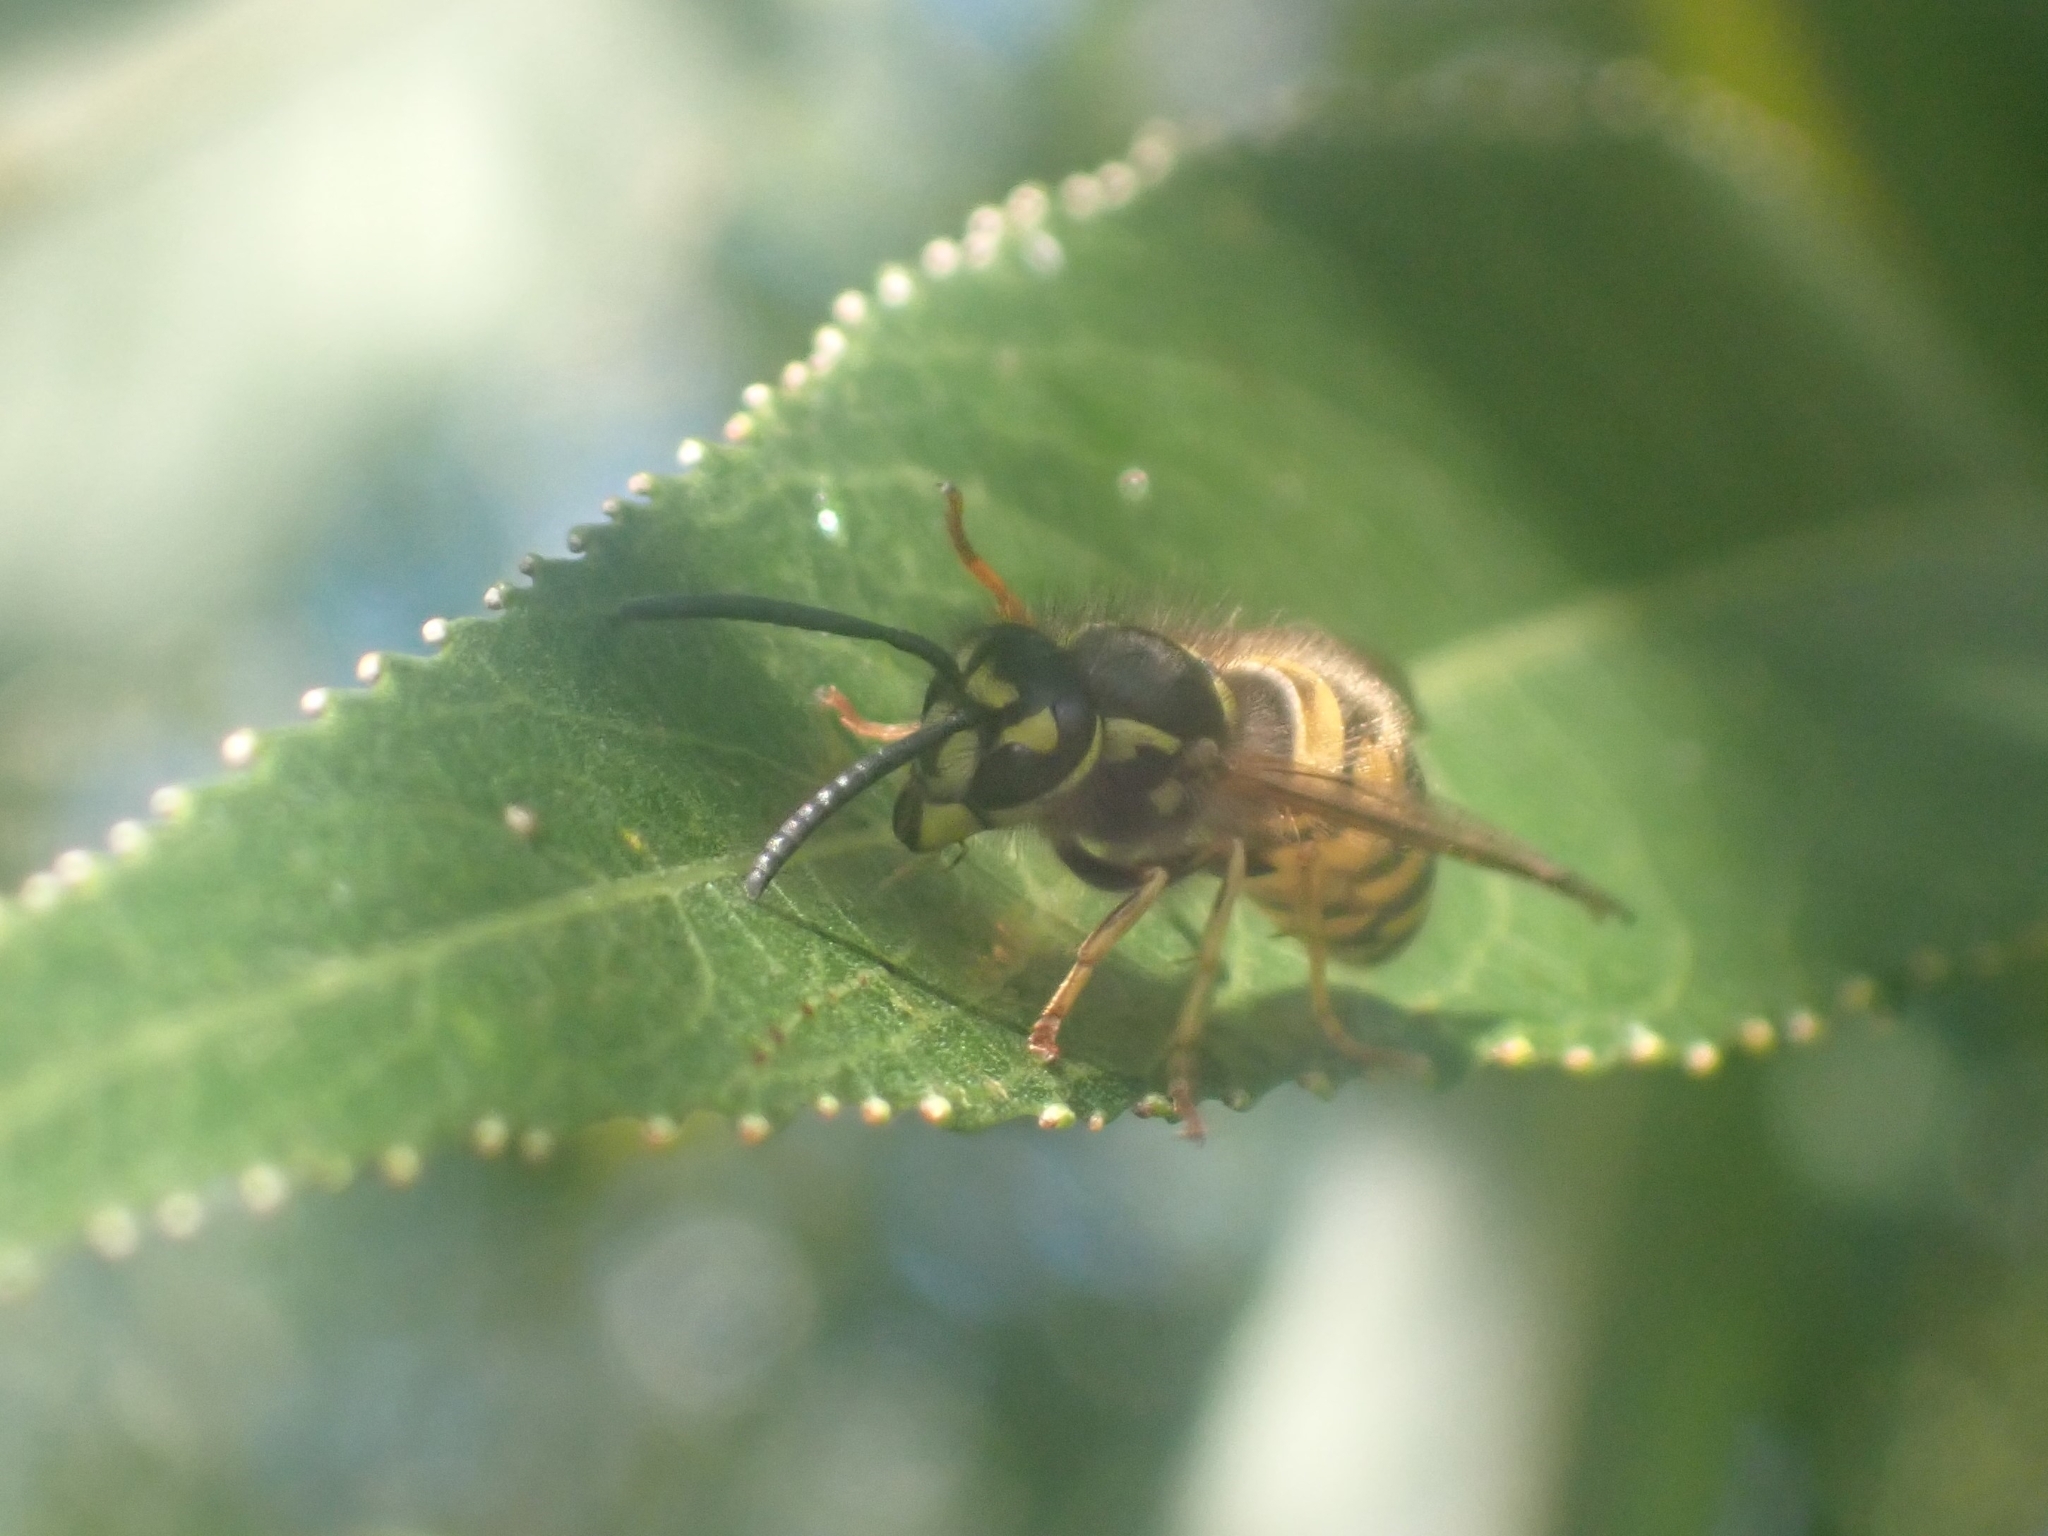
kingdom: Animalia
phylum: Arthropoda
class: Insecta
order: Hymenoptera
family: Vespidae
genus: Vespula
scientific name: Vespula vulgaris
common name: Common wasp
